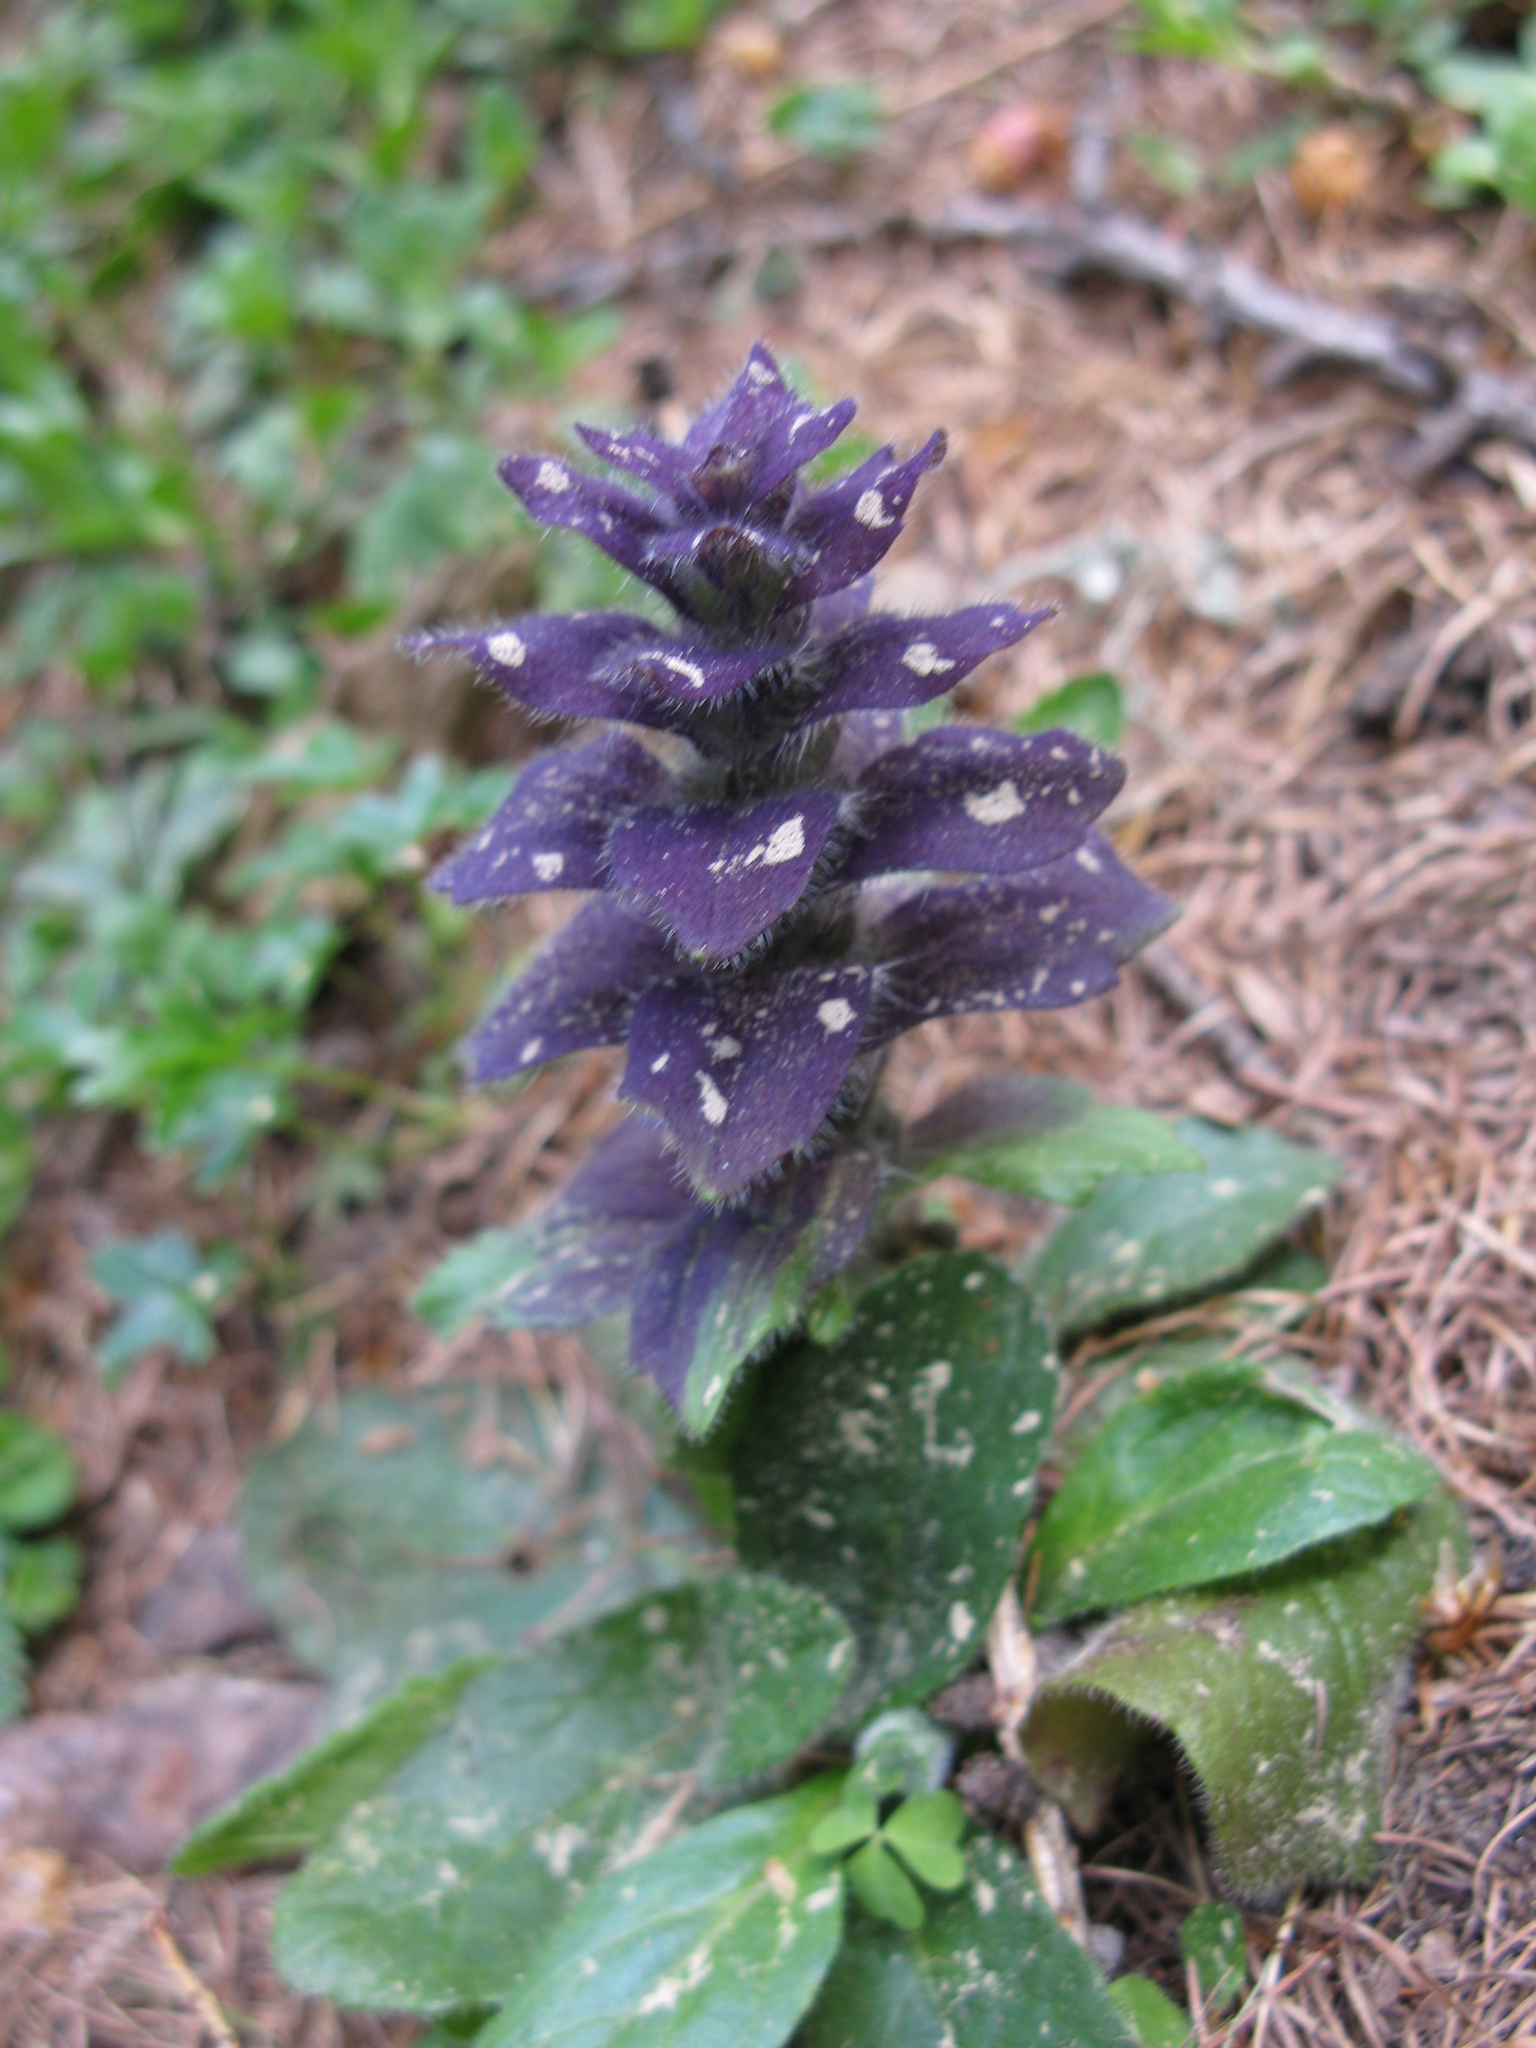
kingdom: Plantae
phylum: Tracheophyta
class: Magnoliopsida
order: Lamiales
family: Lamiaceae
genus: Ajuga
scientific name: Ajuga pyramidalis
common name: Pyramid bugle
